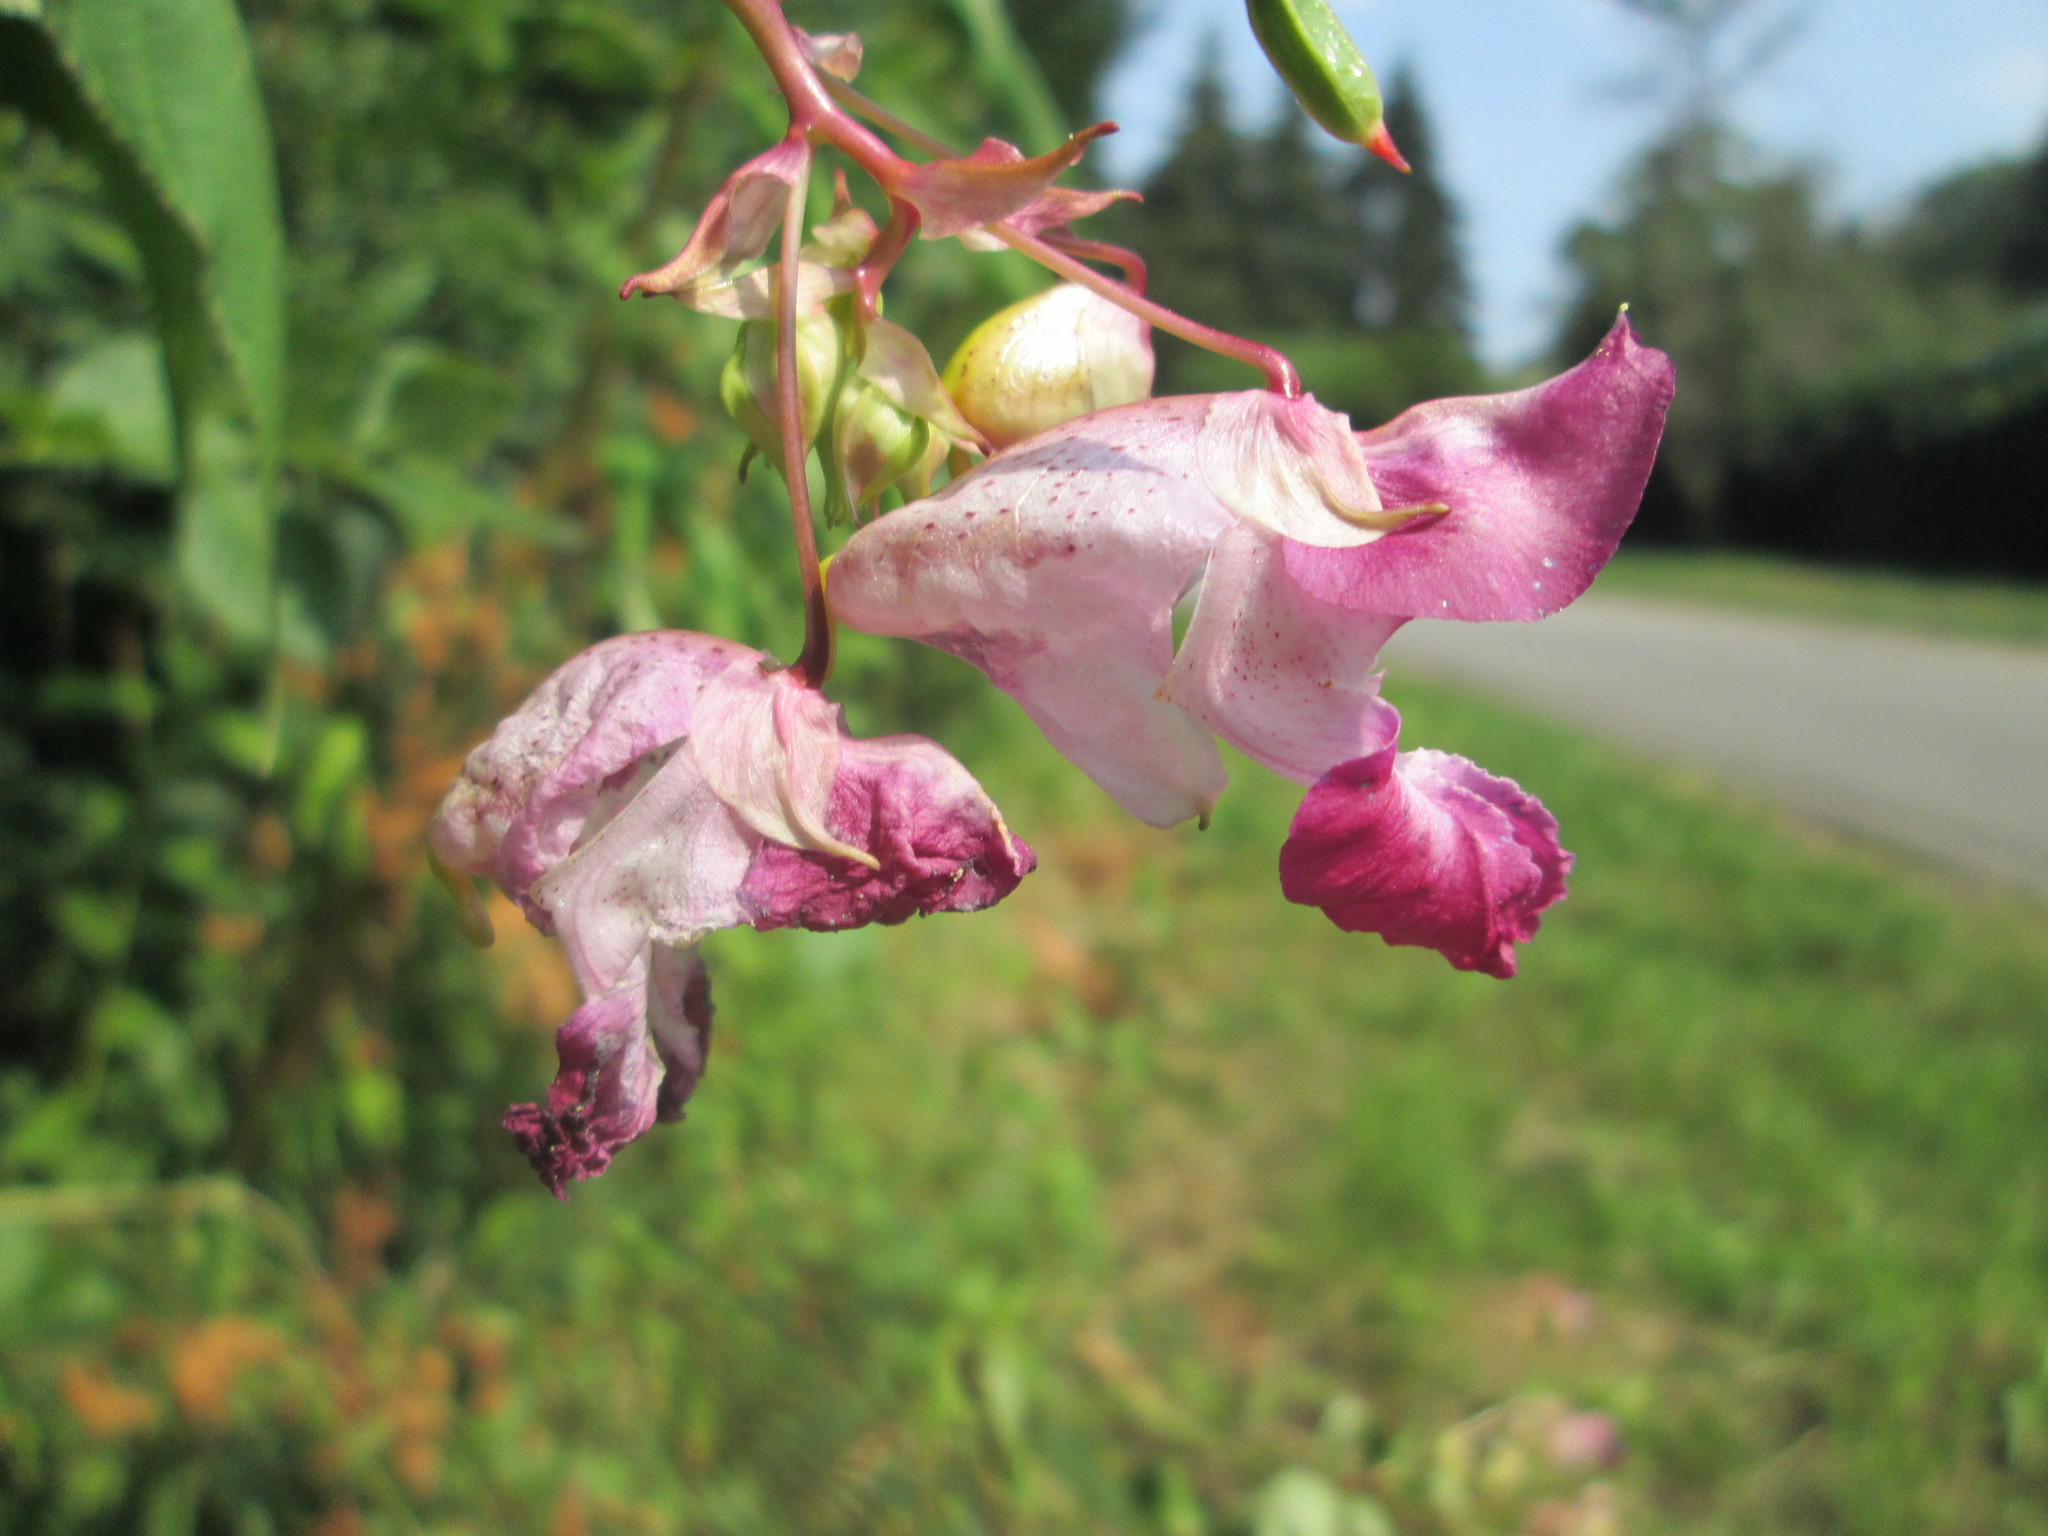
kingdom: Plantae
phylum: Tracheophyta
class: Magnoliopsida
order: Ericales
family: Balsaminaceae
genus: Impatiens
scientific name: Impatiens glandulifera
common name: Himalayan balsam
